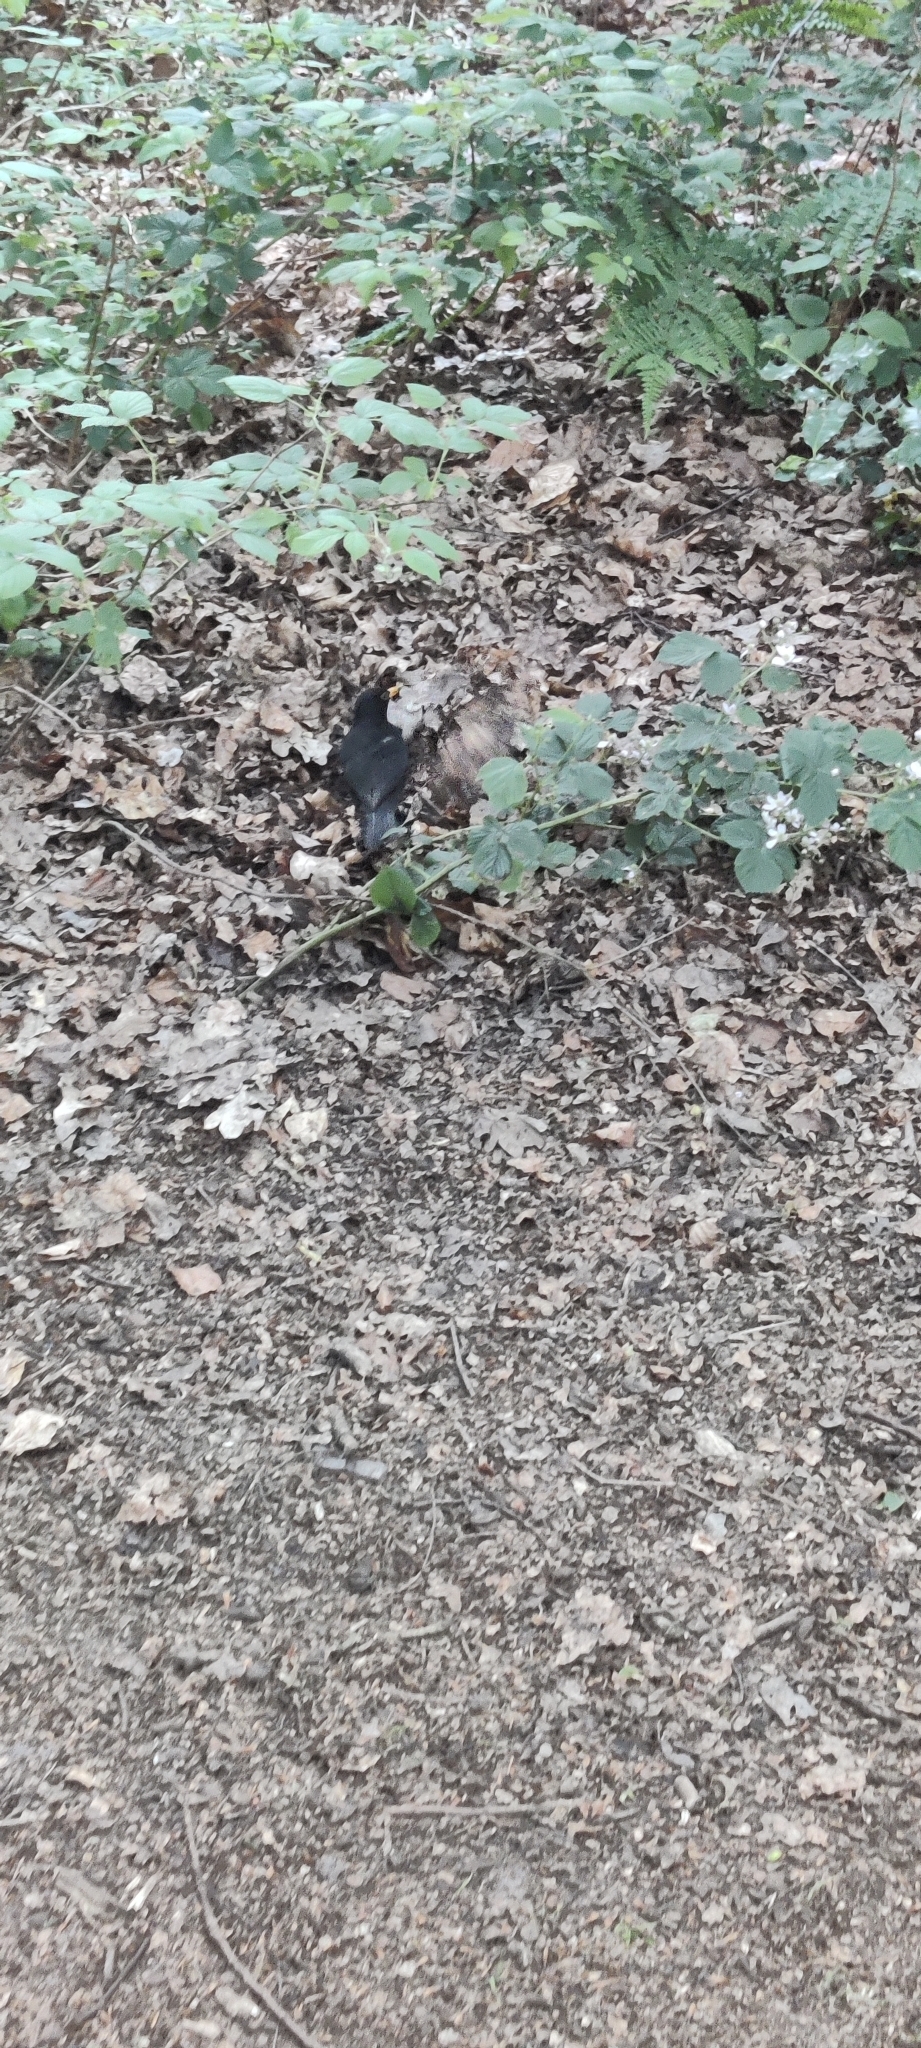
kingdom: Animalia
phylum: Chordata
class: Aves
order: Passeriformes
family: Turdidae
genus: Turdus
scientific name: Turdus merula
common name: Common blackbird
